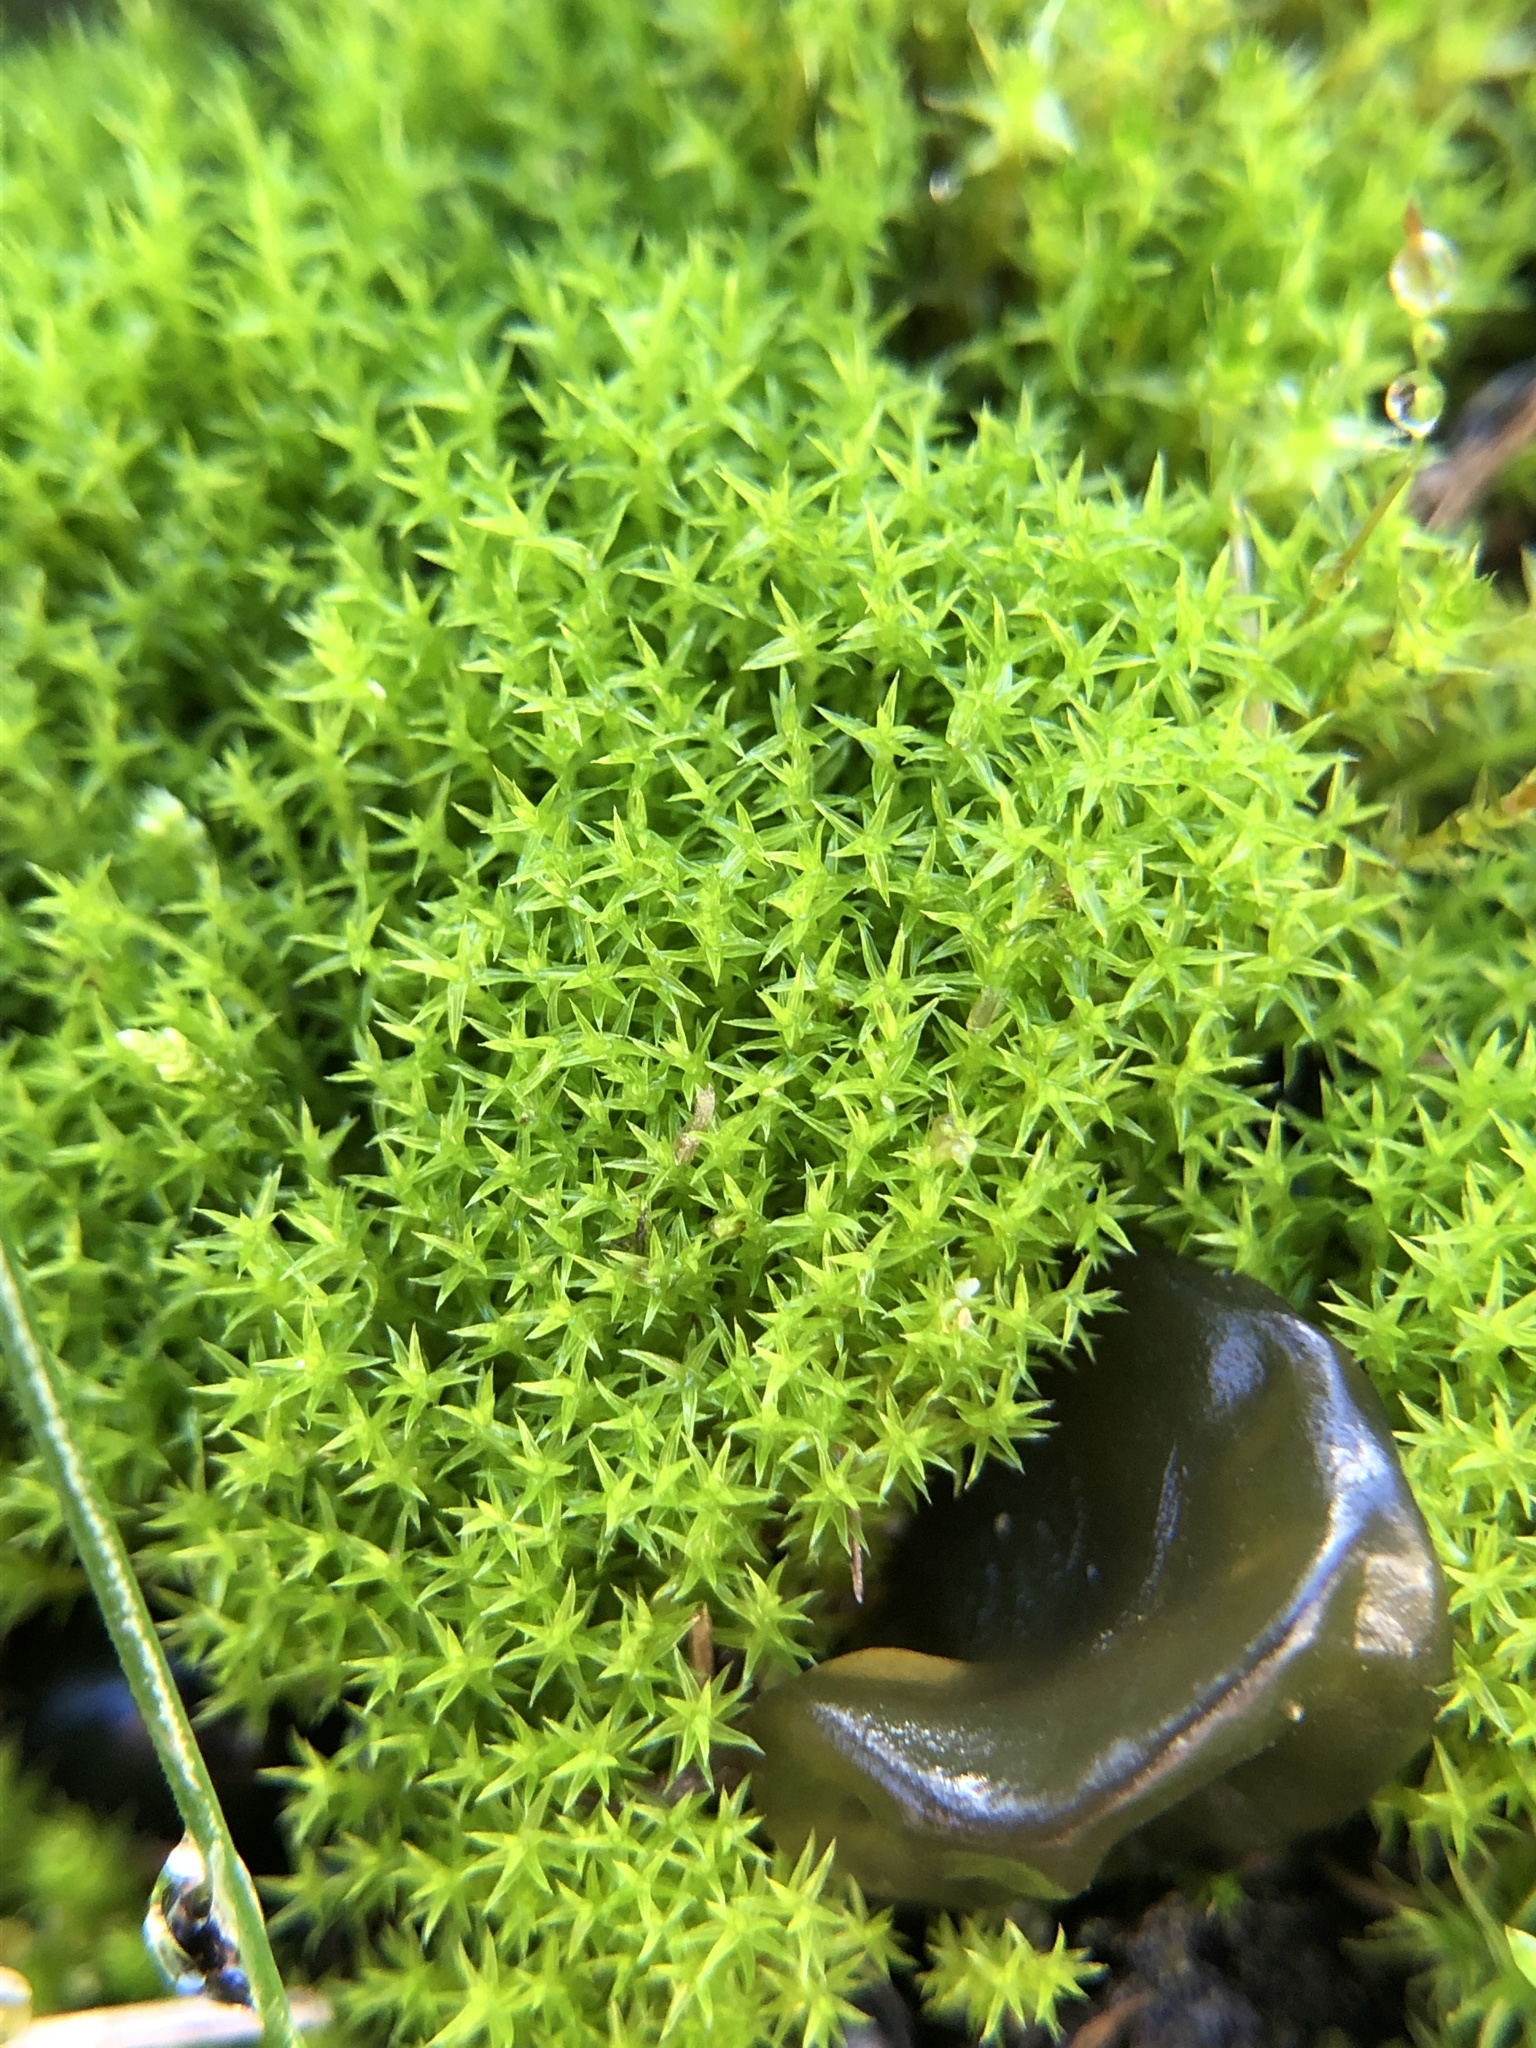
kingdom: Plantae
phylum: Bryophyta
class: Bryopsida
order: Dicranales
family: Ditrichaceae
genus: Ceratodon
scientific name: Ceratodon purpureus
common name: Redshank
